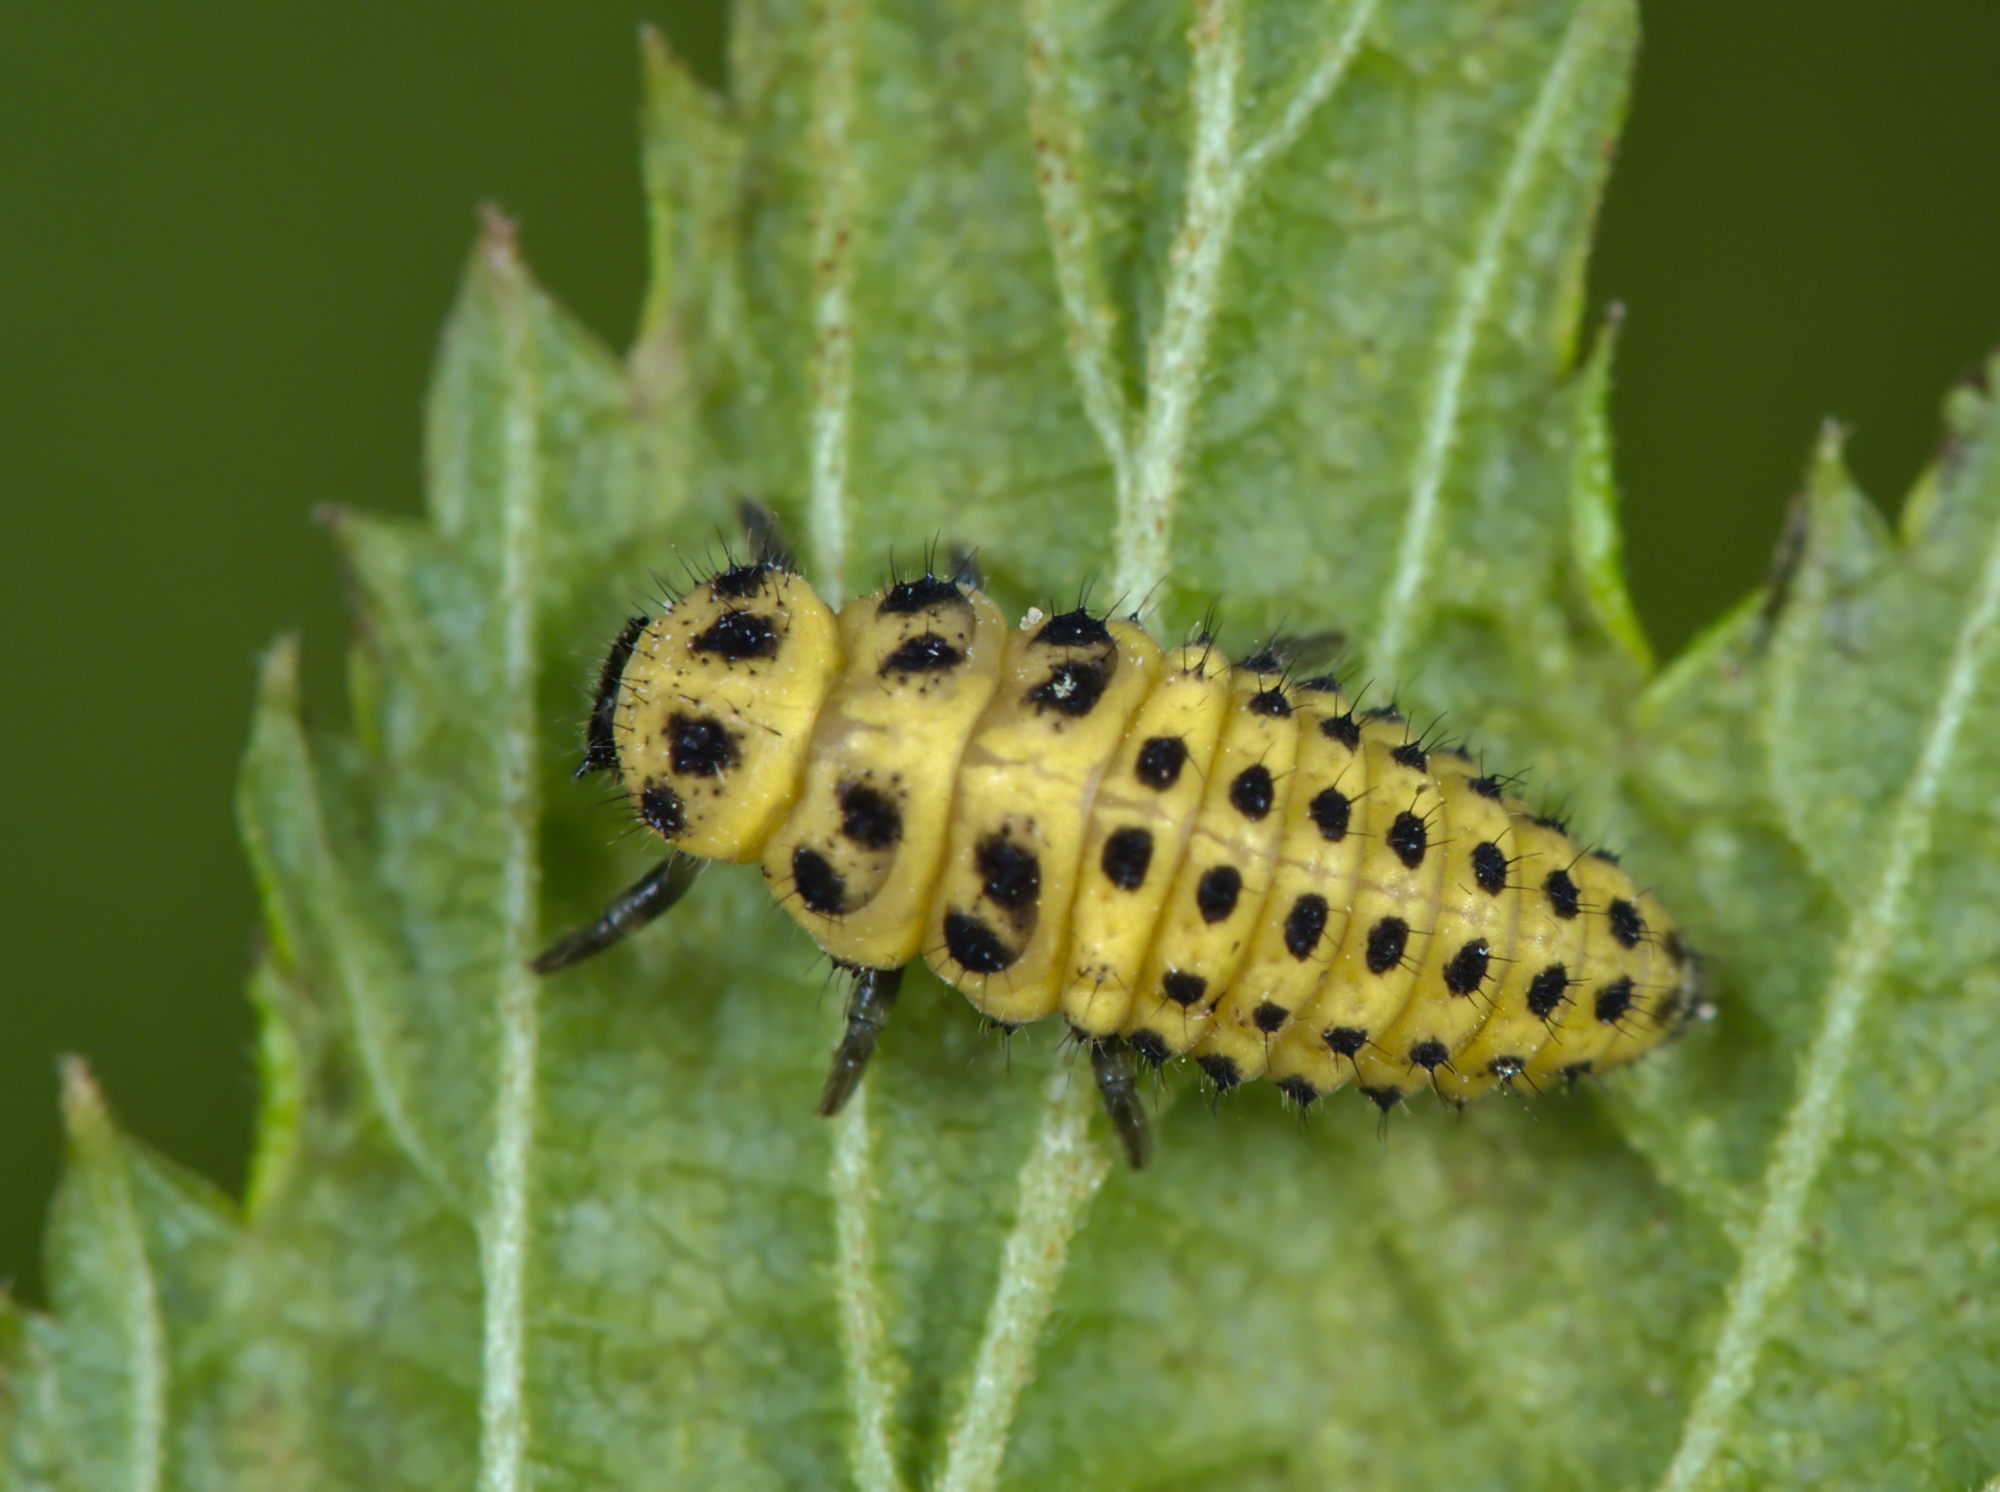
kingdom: Animalia
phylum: Arthropoda
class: Insecta
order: Coleoptera
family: Coccinellidae
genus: Psyllobora
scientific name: Psyllobora vigintiduopunctata
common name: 22-spot ladybird
